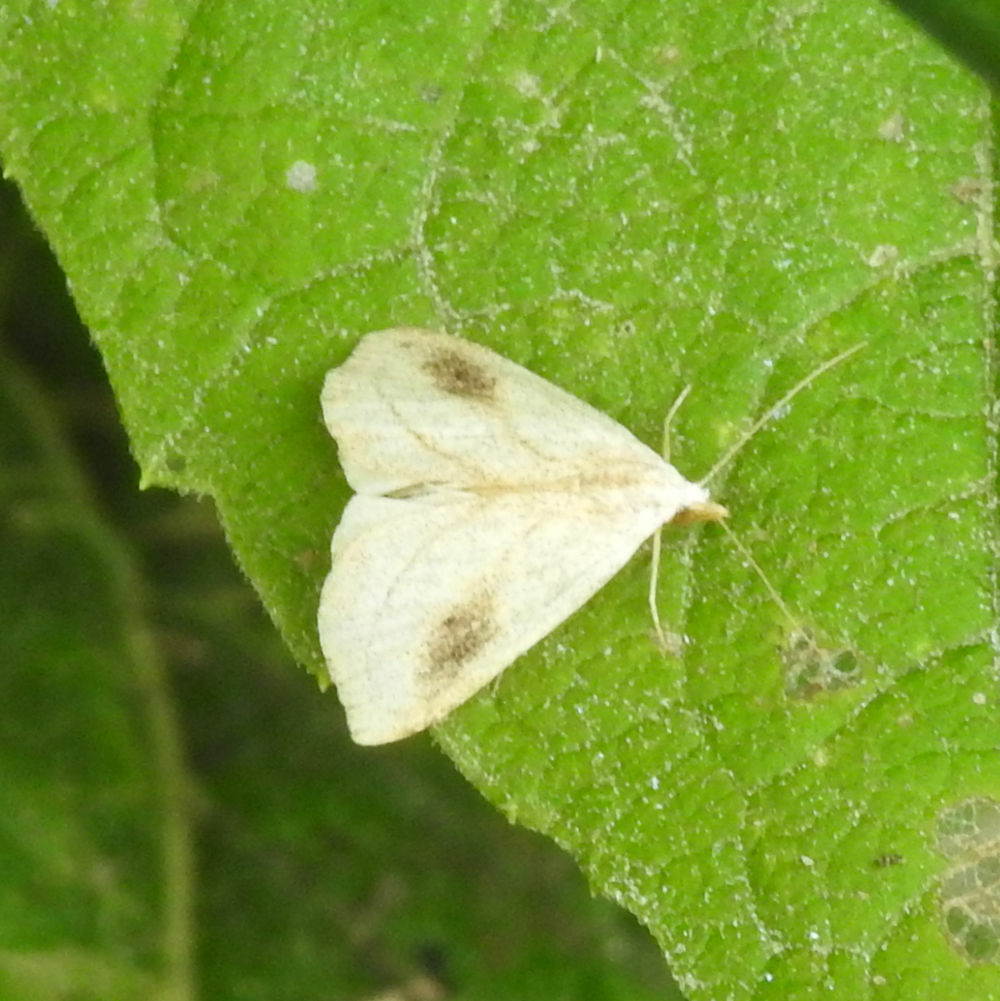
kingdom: Animalia
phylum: Arthropoda
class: Insecta
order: Lepidoptera
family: Erebidae
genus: Rivula
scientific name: Rivula propinqualis
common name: Spotted grass moth
